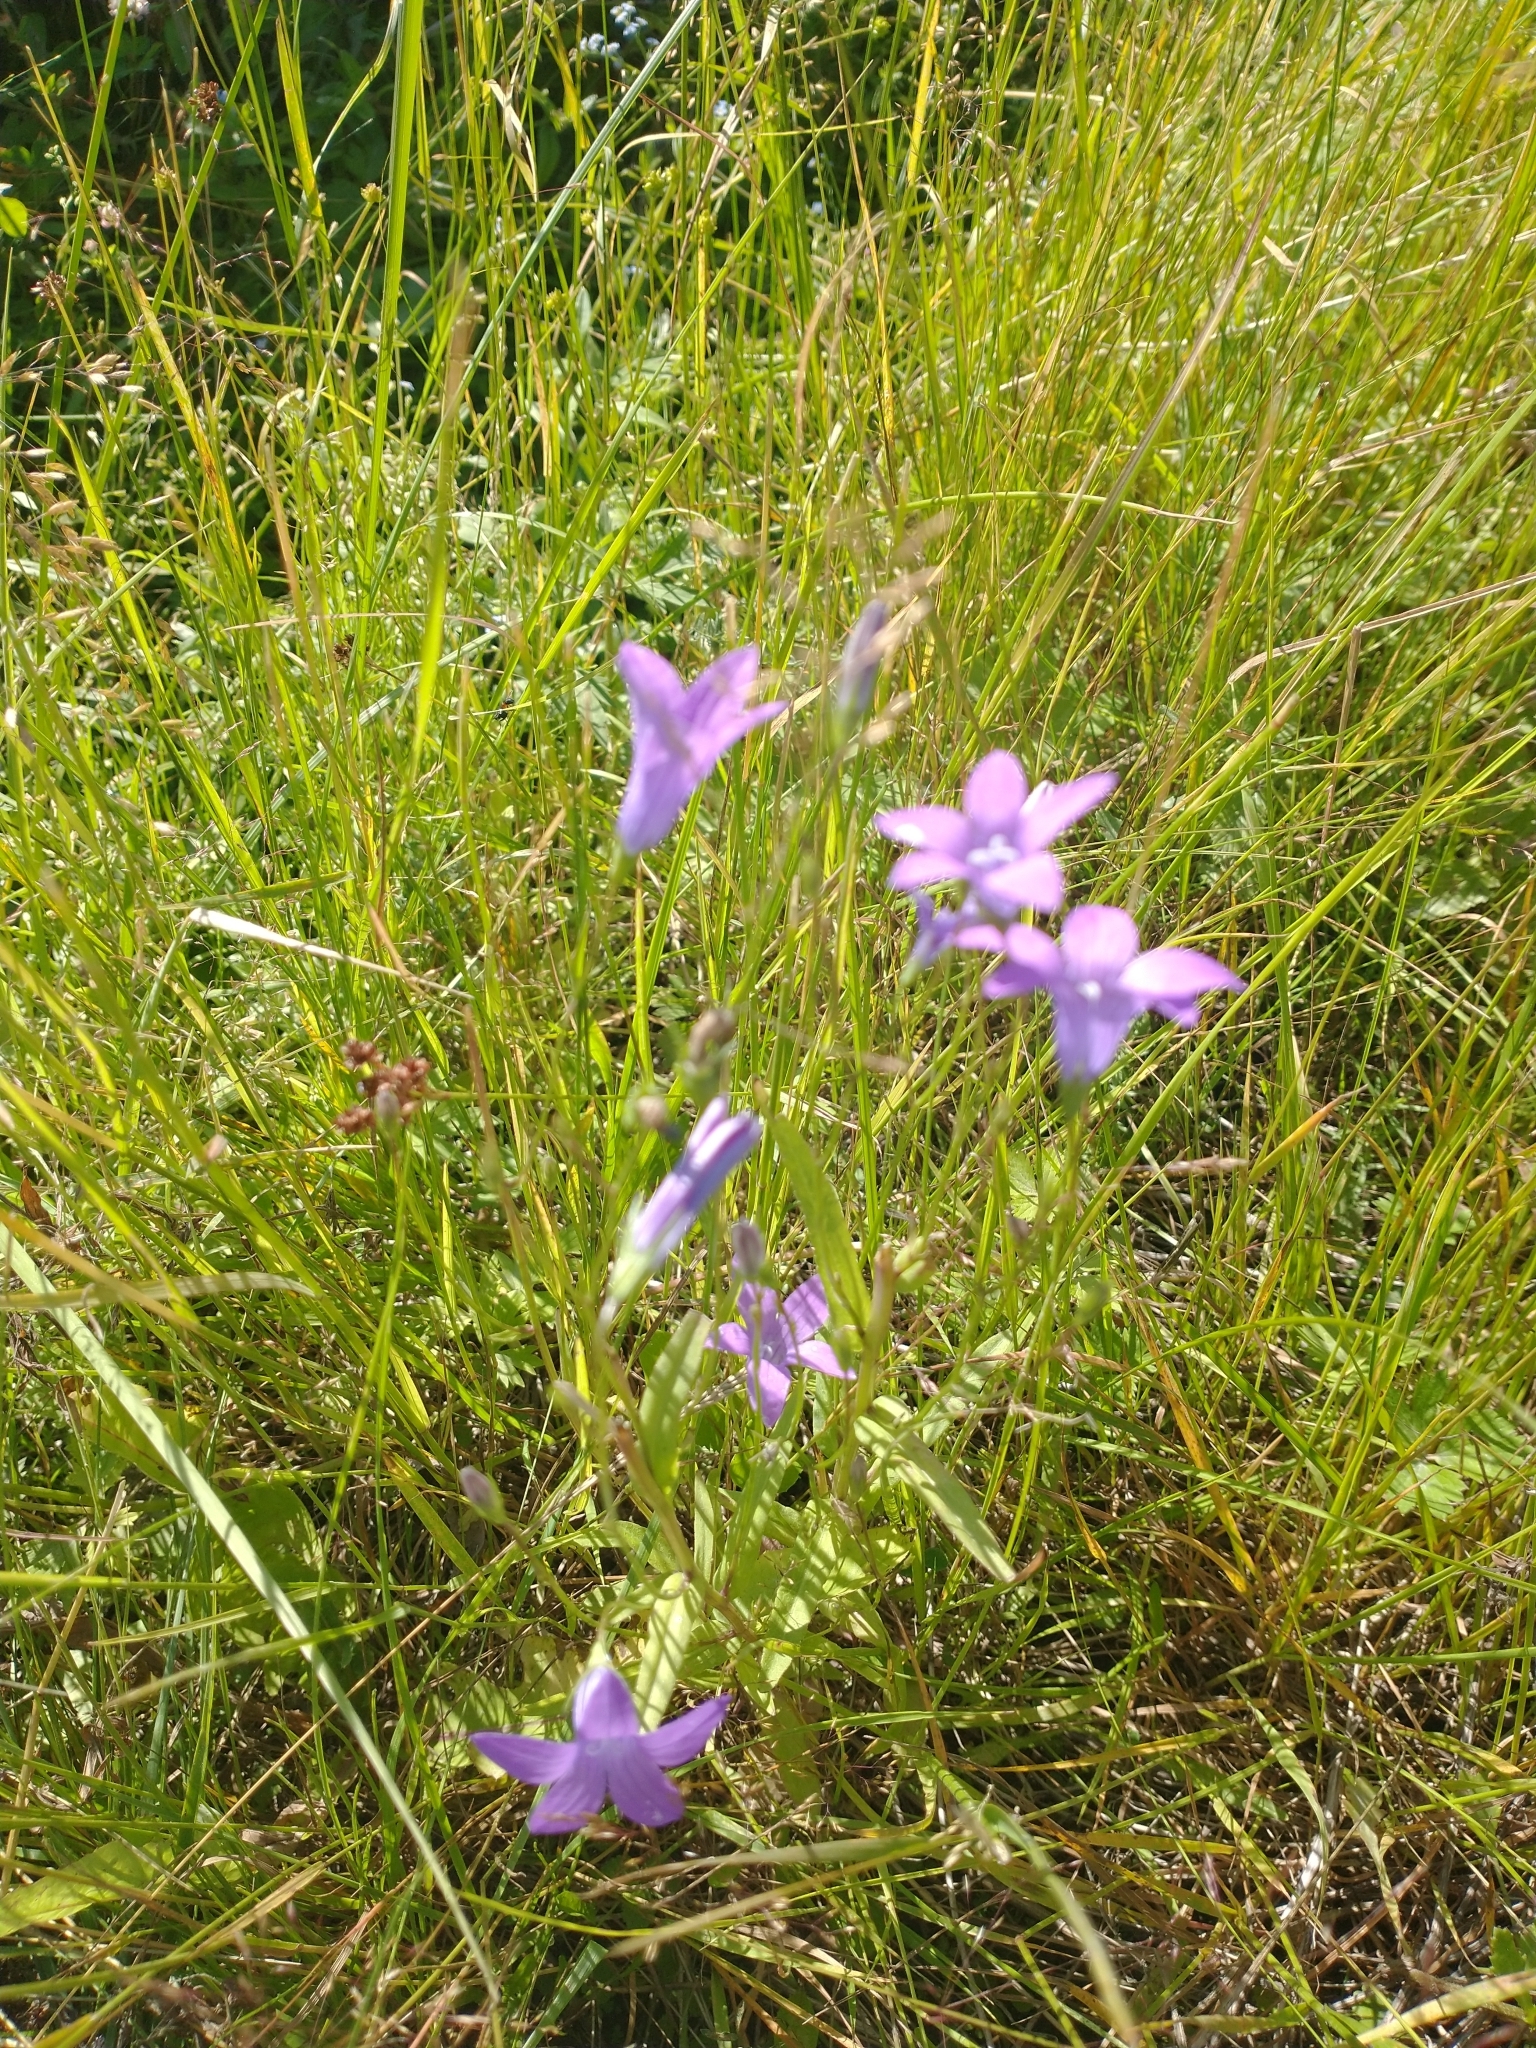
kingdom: Plantae
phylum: Tracheophyta
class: Magnoliopsida
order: Asterales
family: Campanulaceae
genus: Campanula
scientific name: Campanula patula
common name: Spreading bellflower
